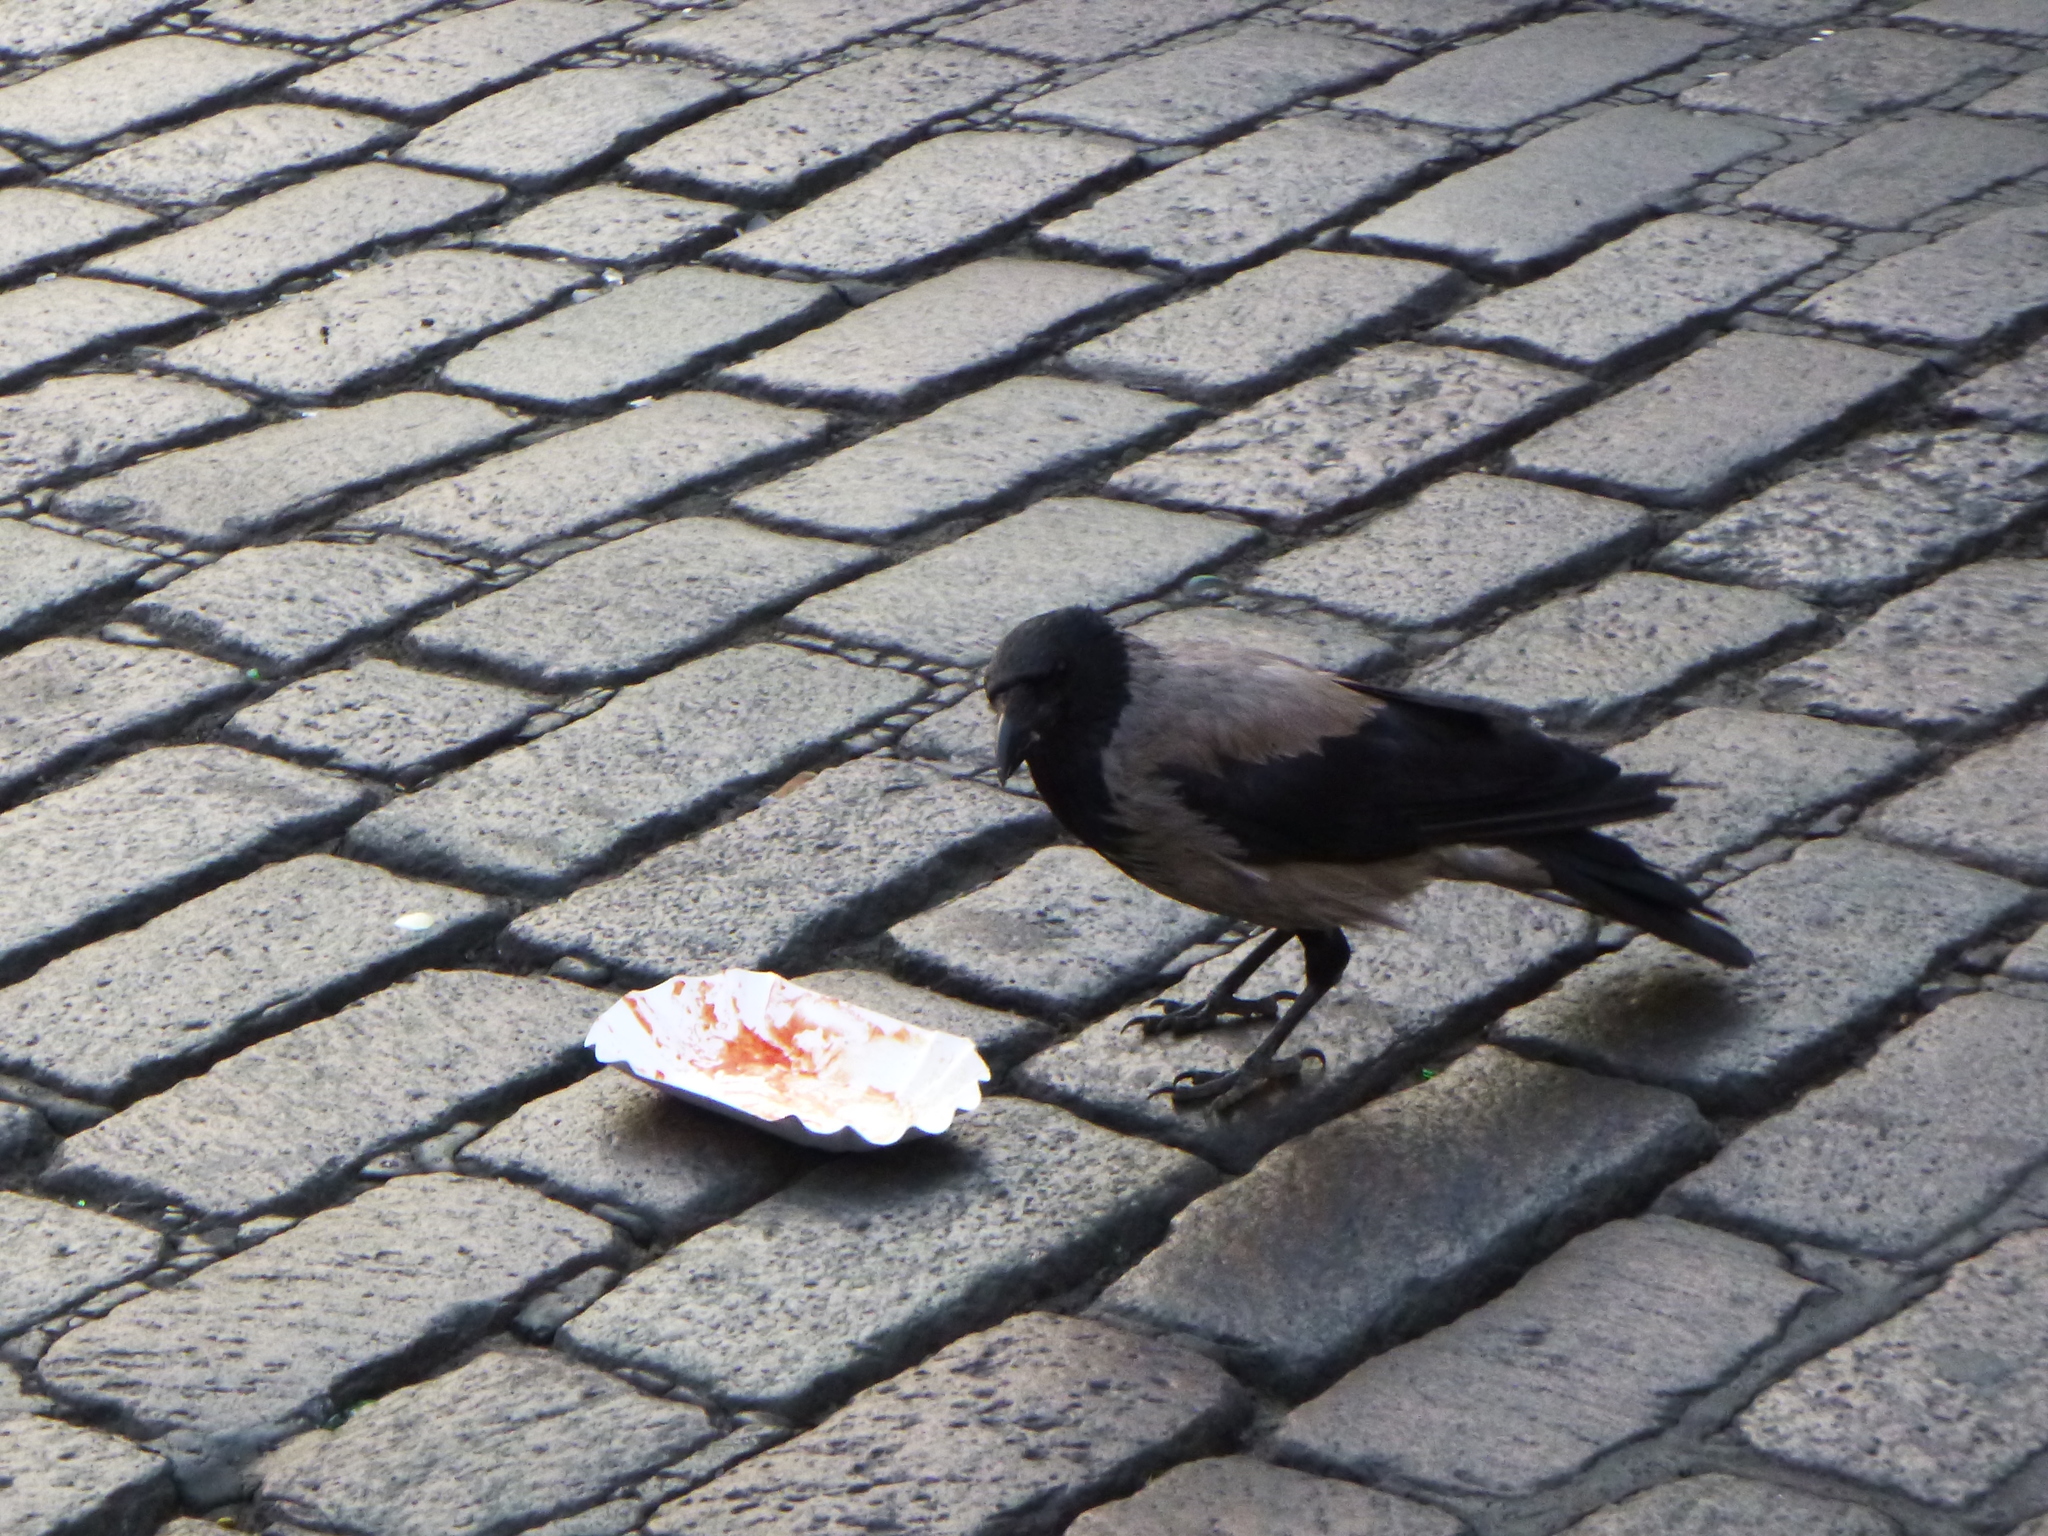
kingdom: Animalia
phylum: Chordata
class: Aves
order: Passeriformes
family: Corvidae
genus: Corvus
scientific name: Corvus cornix
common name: Hooded crow
